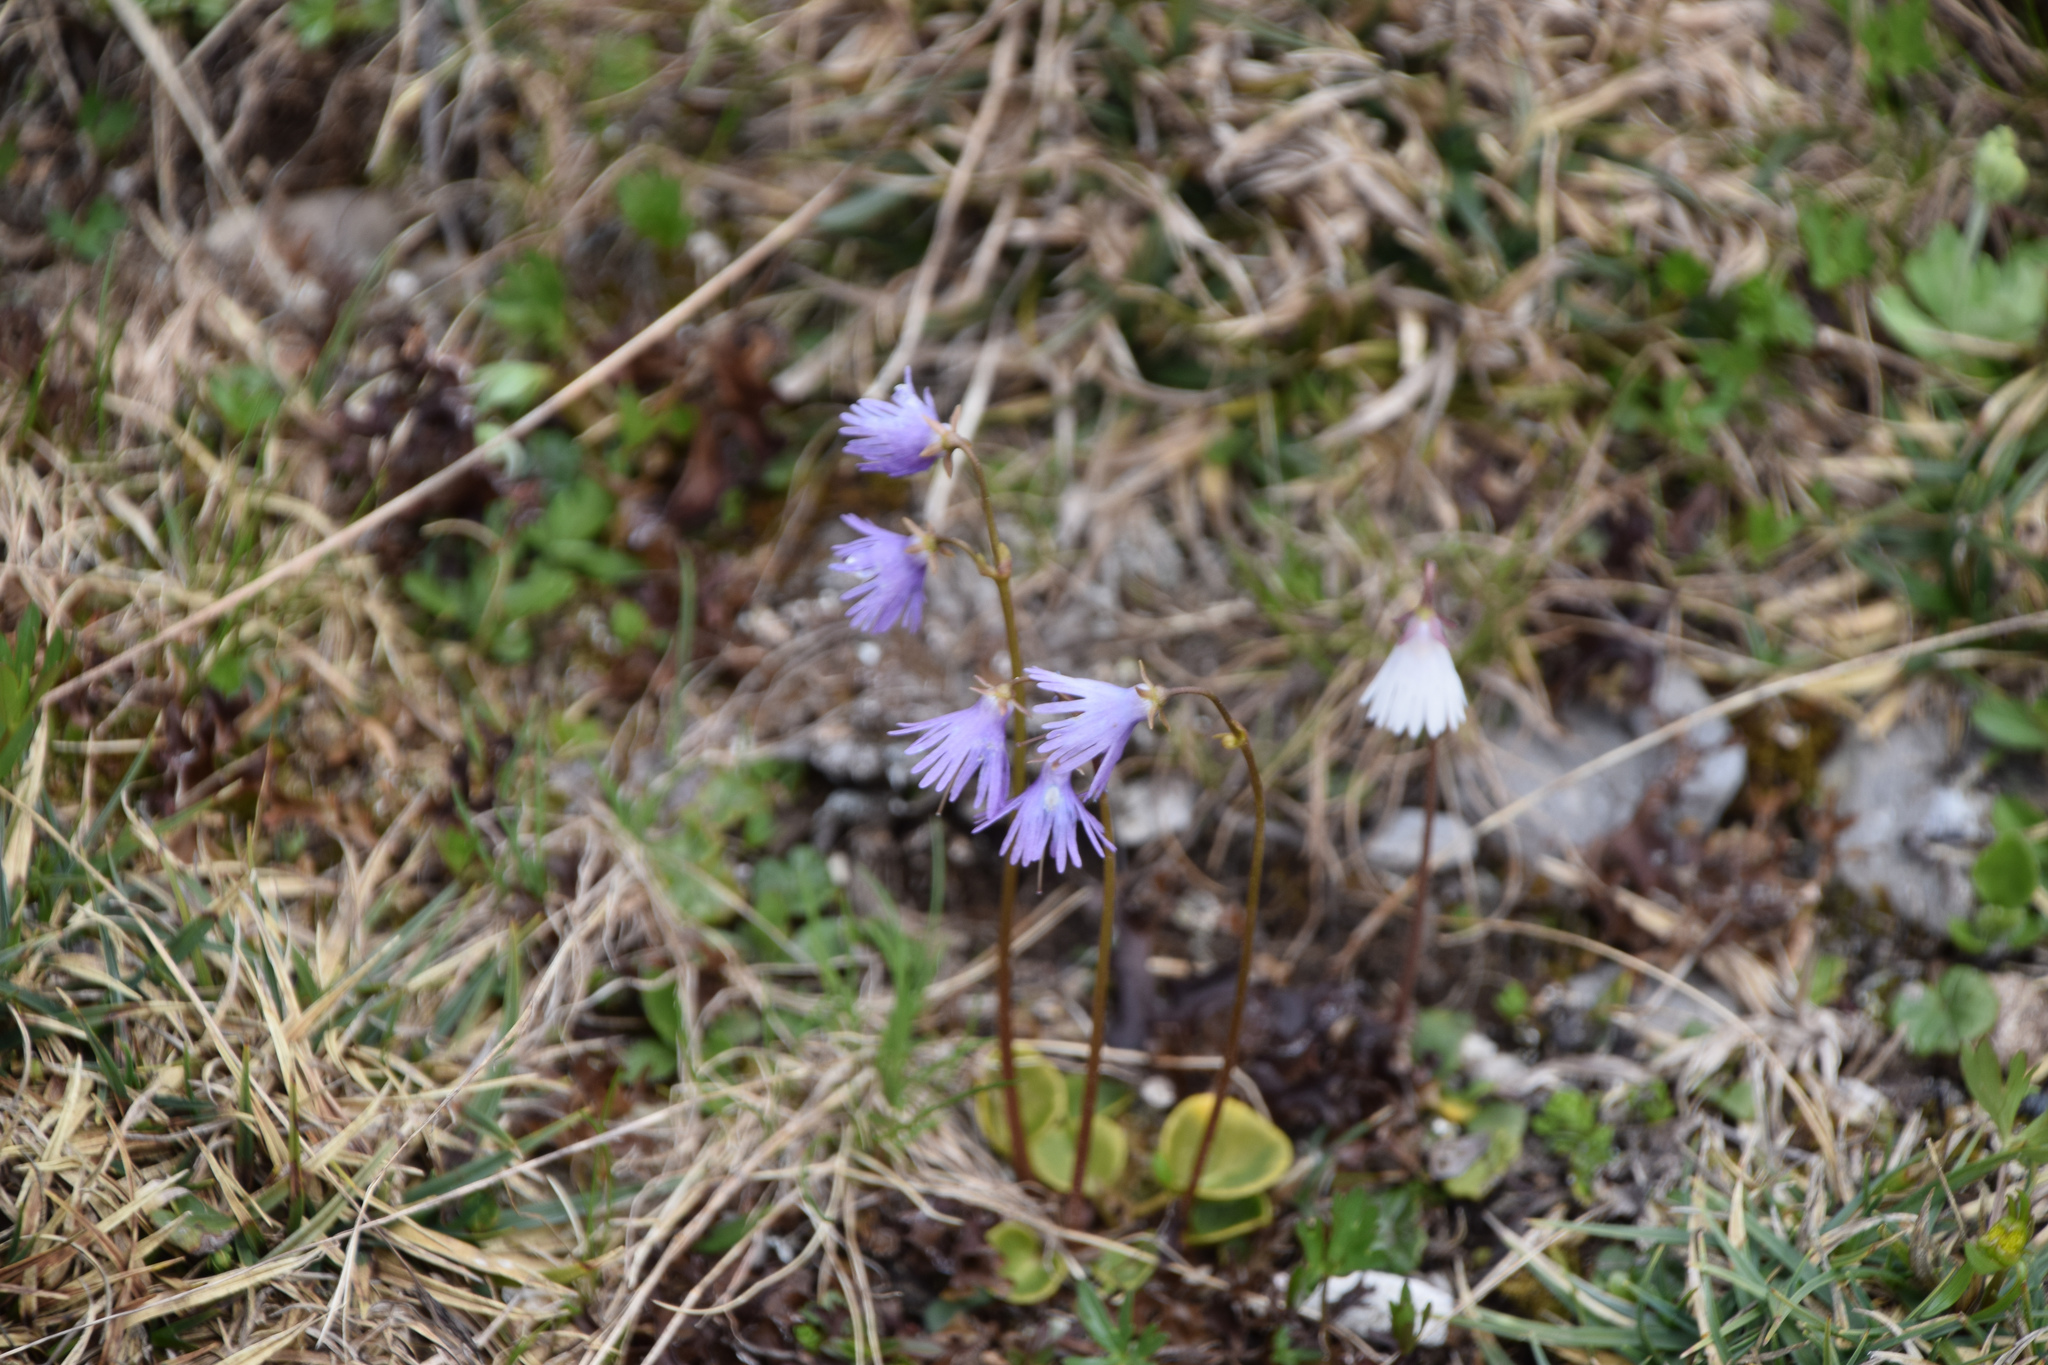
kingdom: Plantae
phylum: Tracheophyta
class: Magnoliopsida
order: Ericales
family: Primulaceae
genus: Soldanella
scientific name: Soldanella alpina
